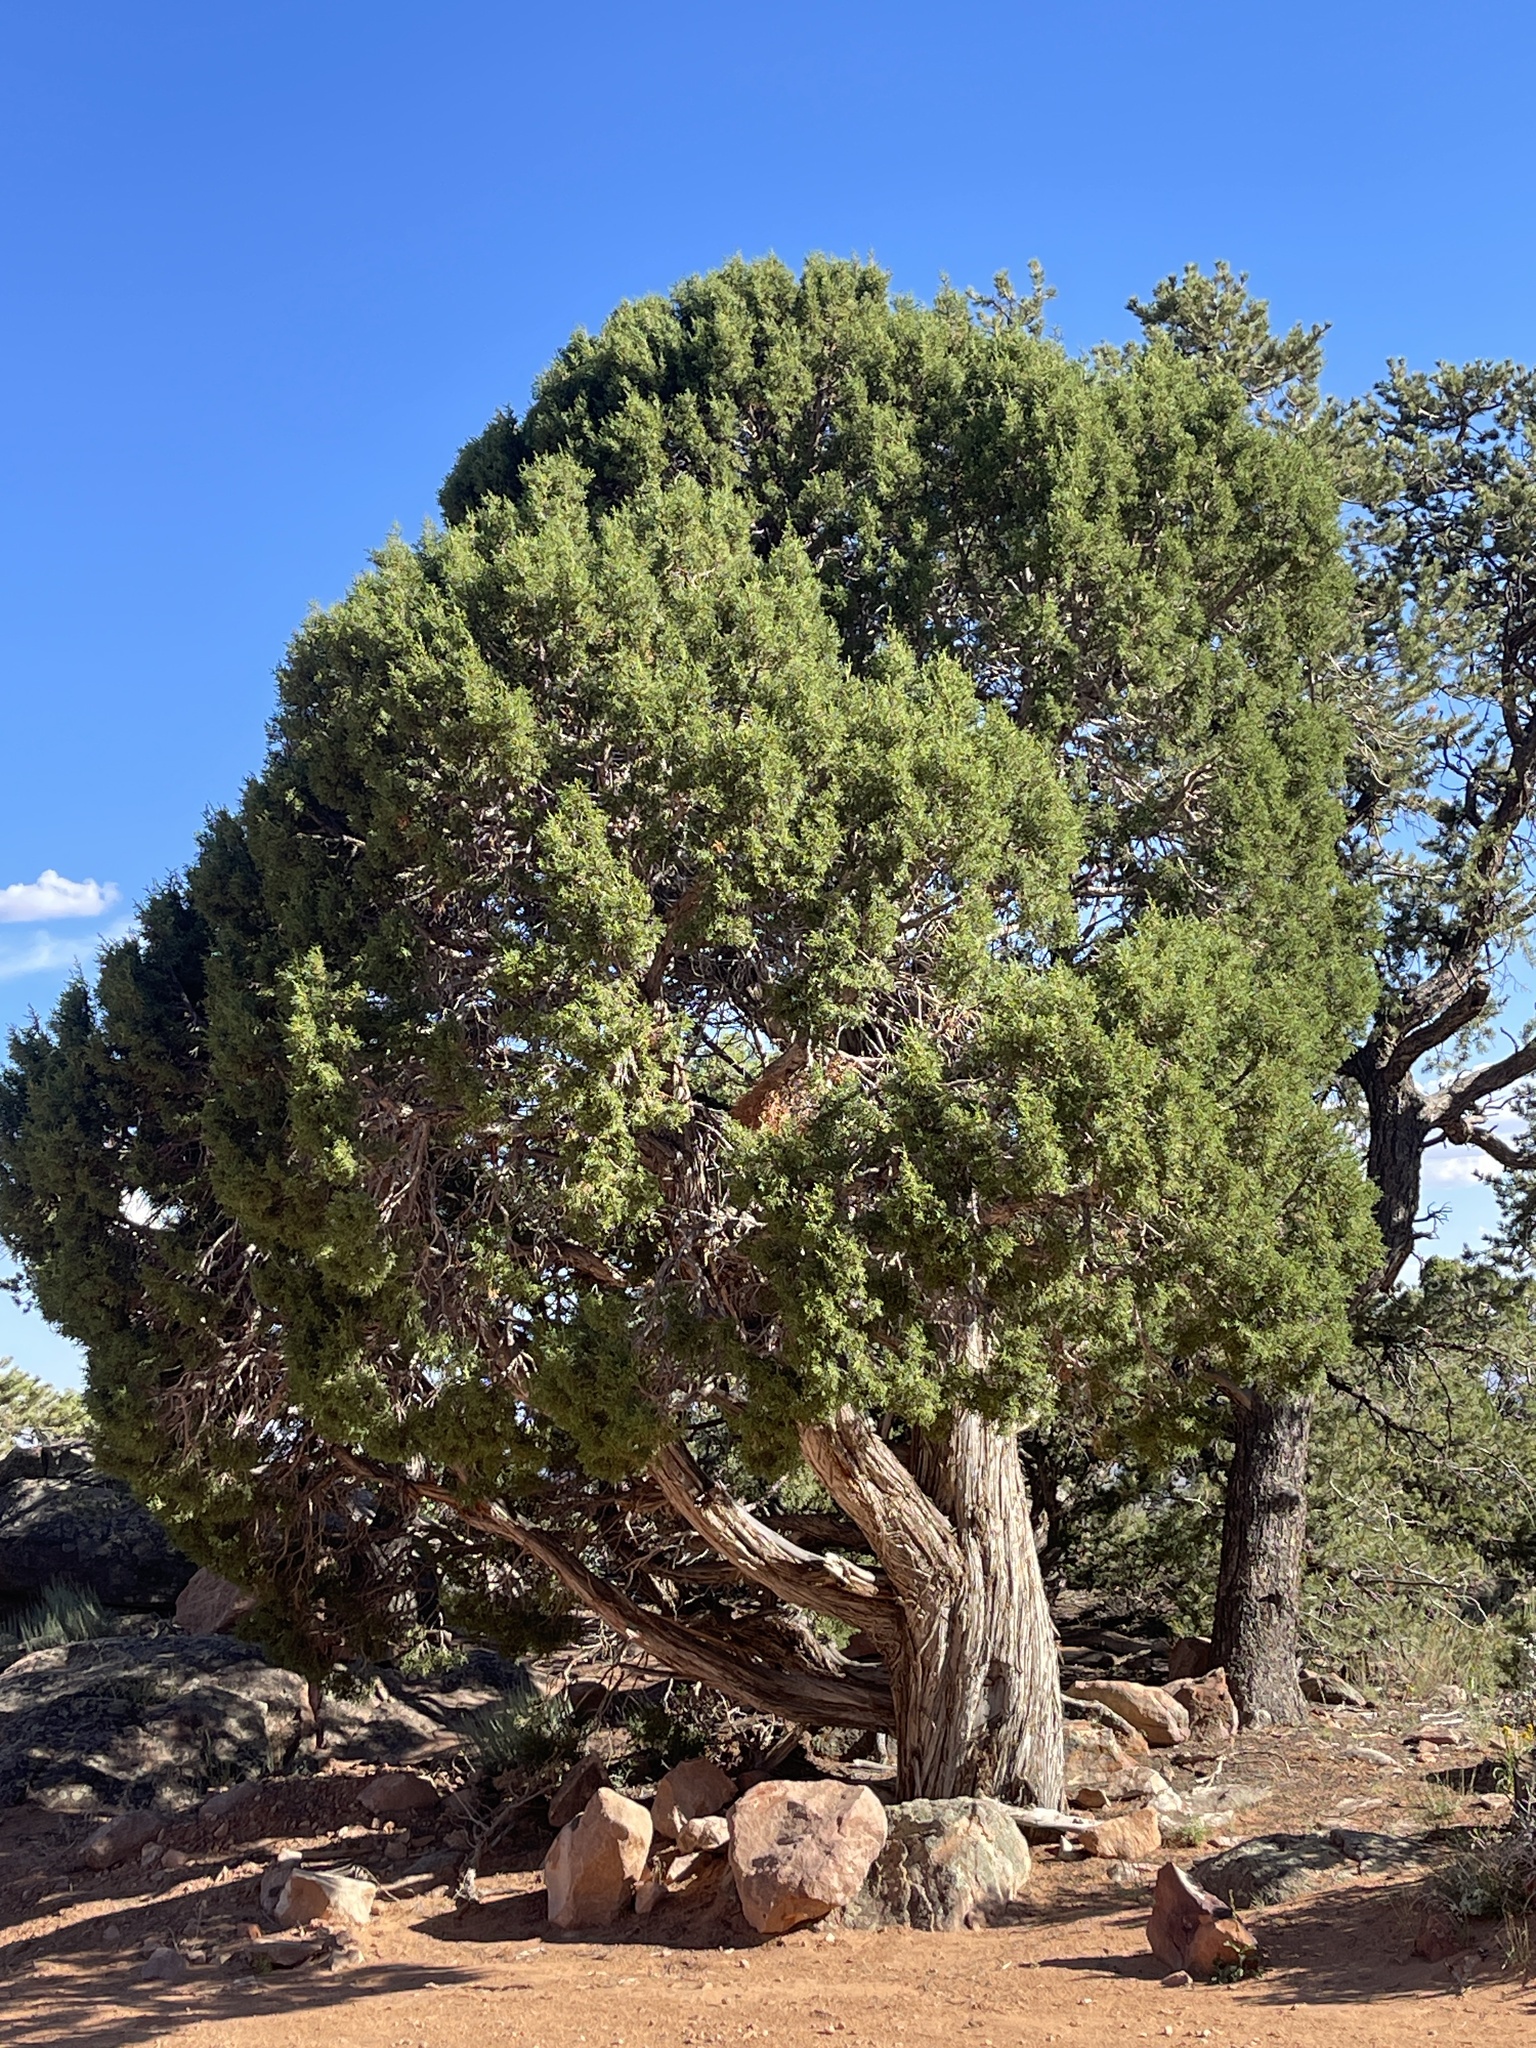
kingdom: Plantae
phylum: Tracheophyta
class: Pinopsida
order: Pinales
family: Cupressaceae
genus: Juniperus
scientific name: Juniperus osteosperma
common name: Utah juniper
